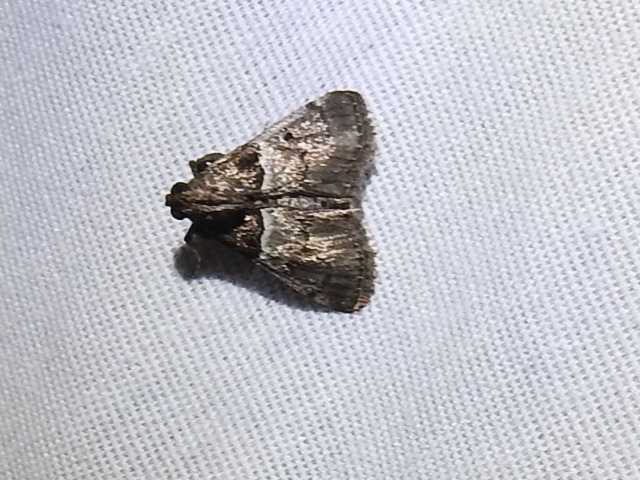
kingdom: Animalia
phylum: Arthropoda
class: Insecta
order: Lepidoptera
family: Pyralidae
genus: Macalla
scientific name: Macalla zelleri
